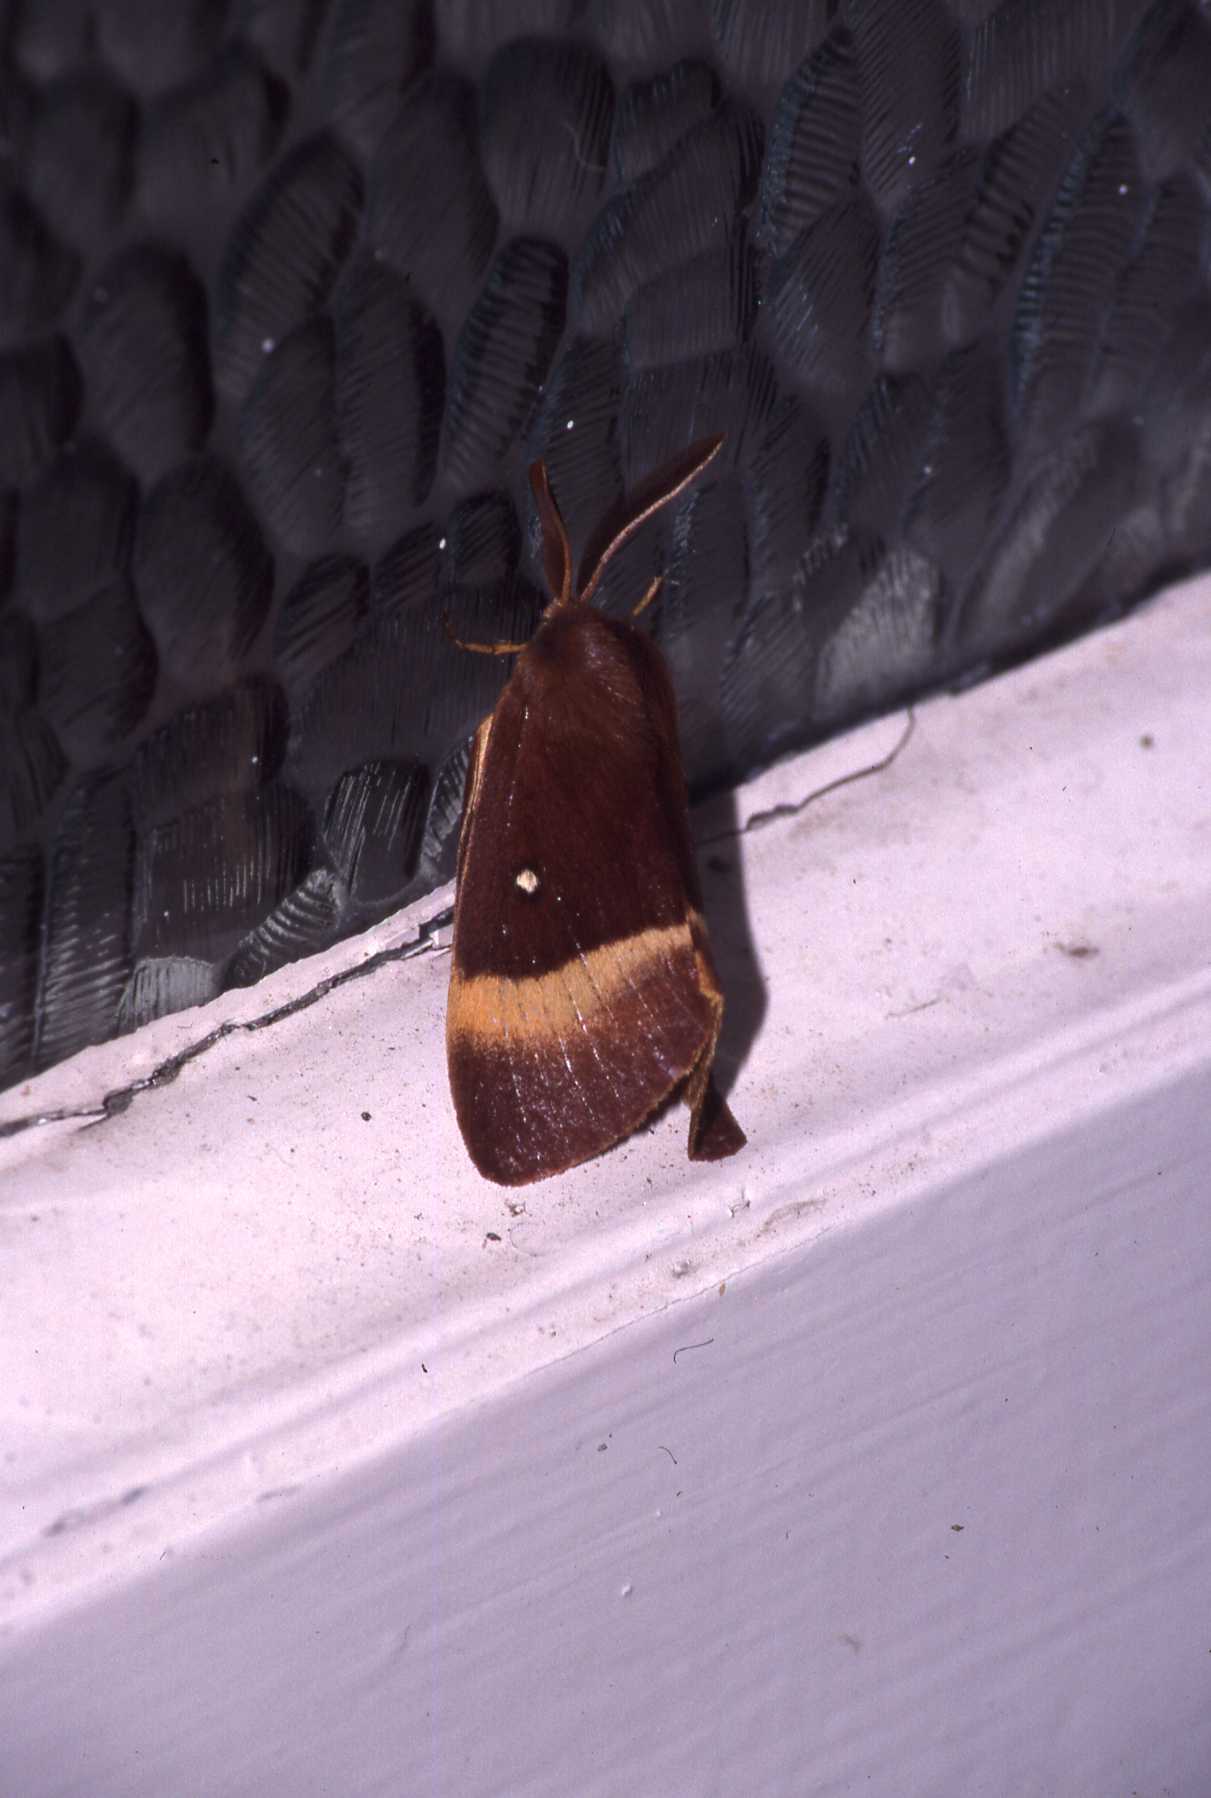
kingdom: Animalia
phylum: Arthropoda
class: Insecta
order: Lepidoptera
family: Lasiocampidae
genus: Lasiocampa
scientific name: Lasiocampa quercus
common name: Oak eggar
